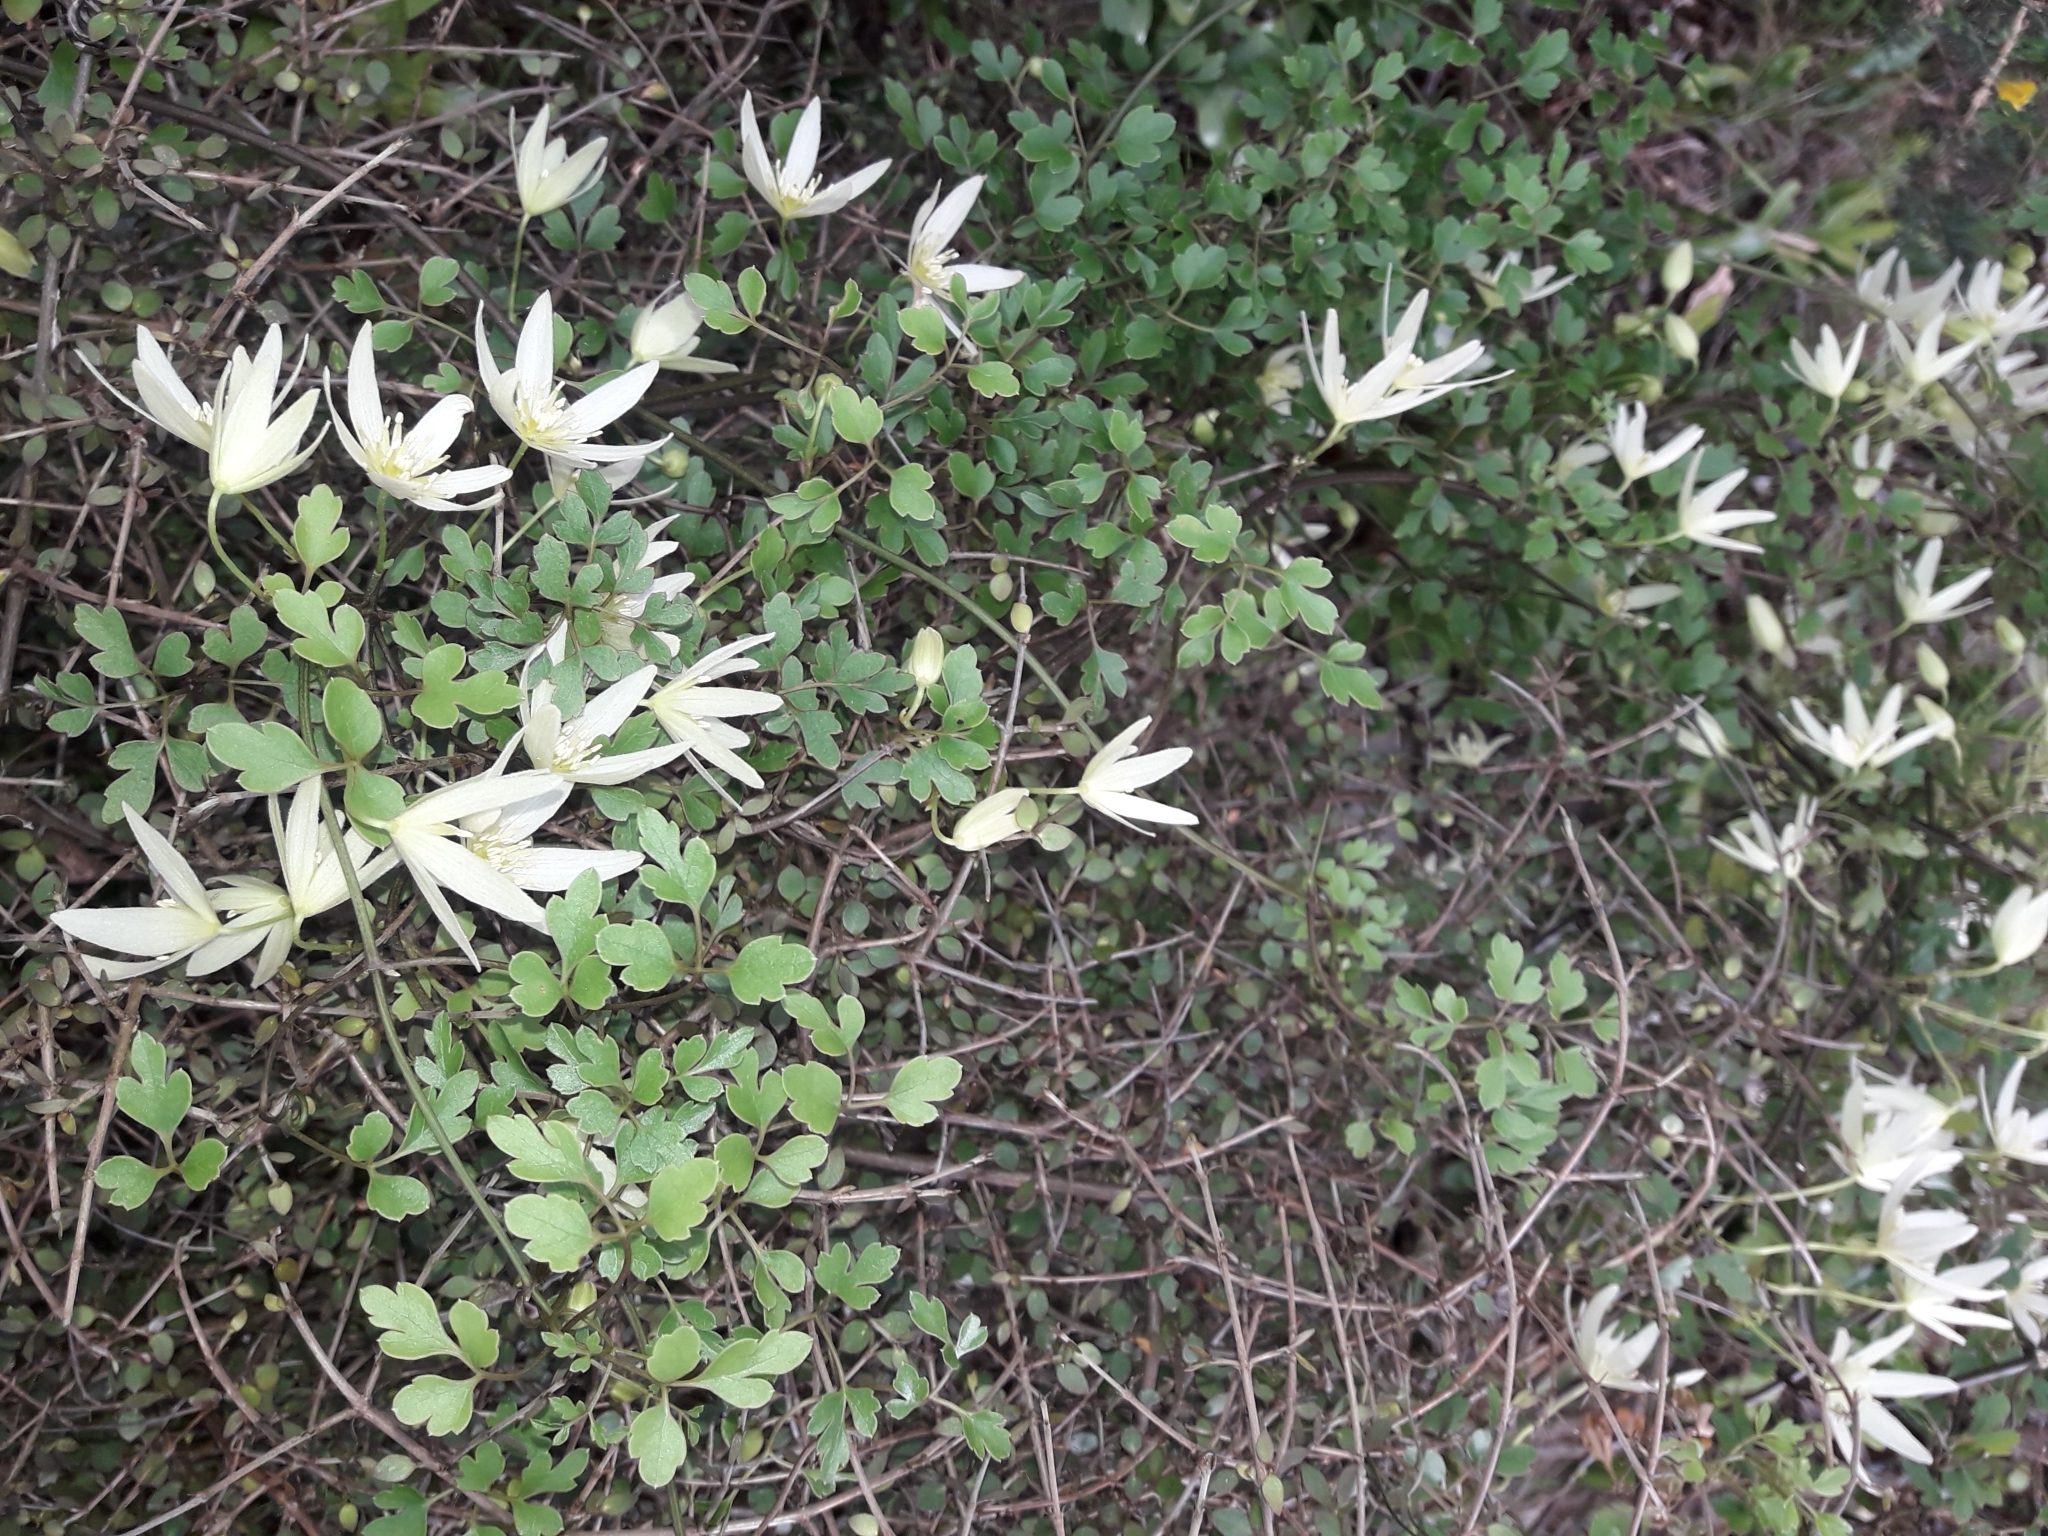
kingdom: Plantae
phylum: Tracheophyta
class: Magnoliopsida
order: Ranunculales
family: Ranunculaceae
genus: Clematis
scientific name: Clematis forsteri
